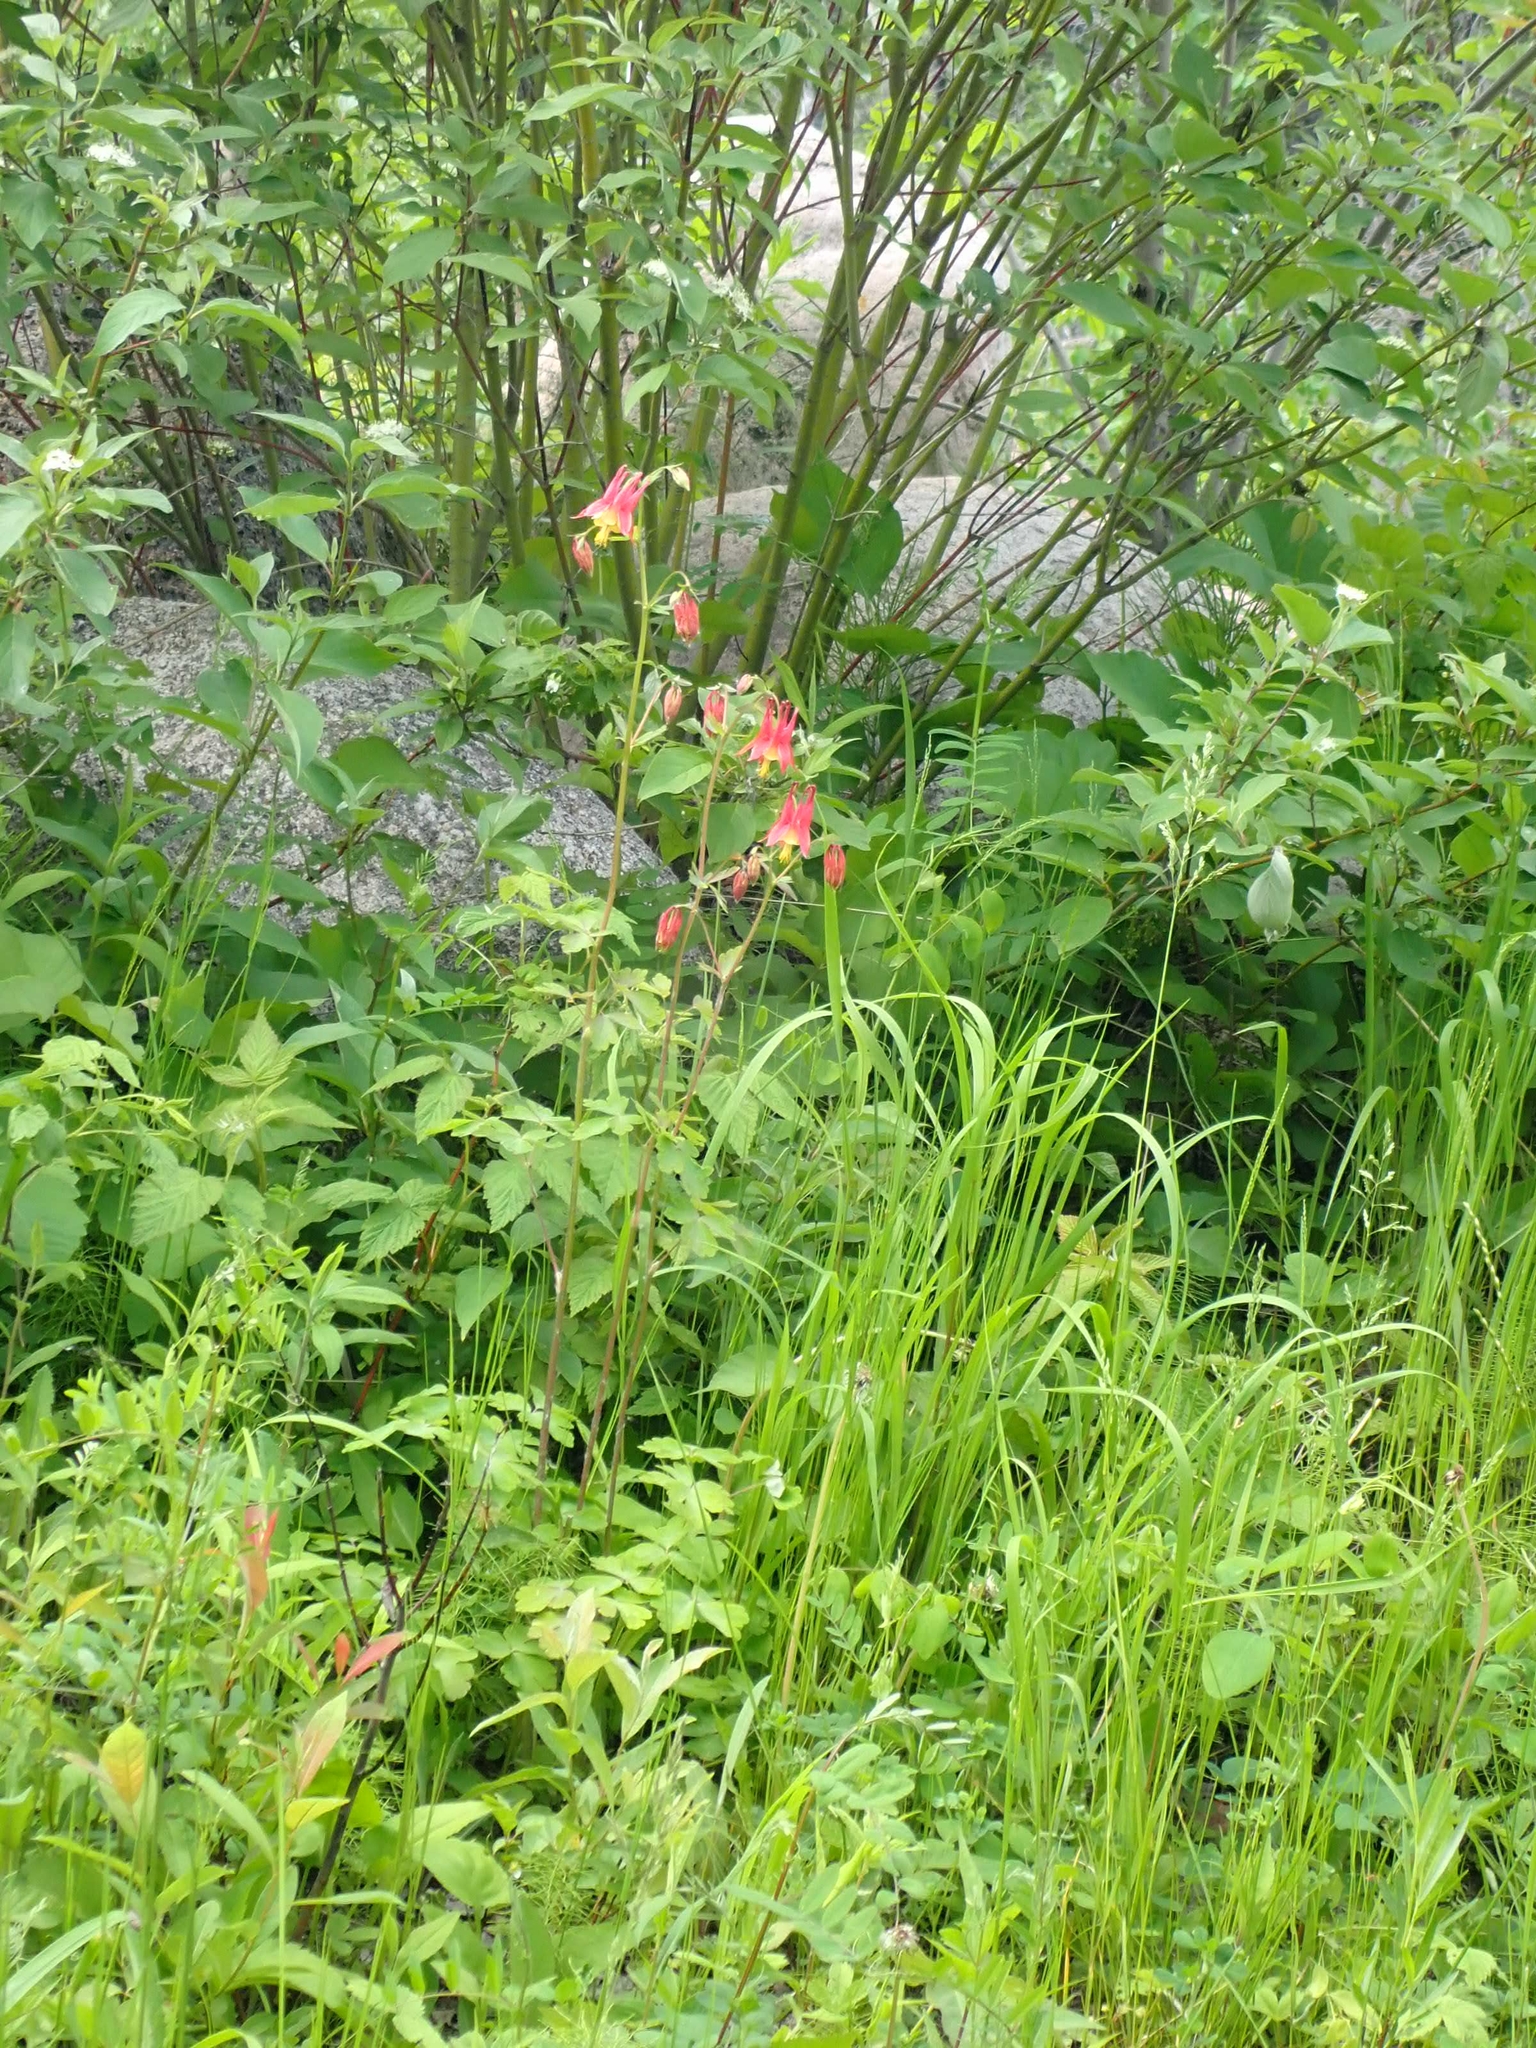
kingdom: Plantae
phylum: Tracheophyta
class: Magnoliopsida
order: Ranunculales
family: Ranunculaceae
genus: Aquilegia
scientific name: Aquilegia canadensis
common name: American columbine
